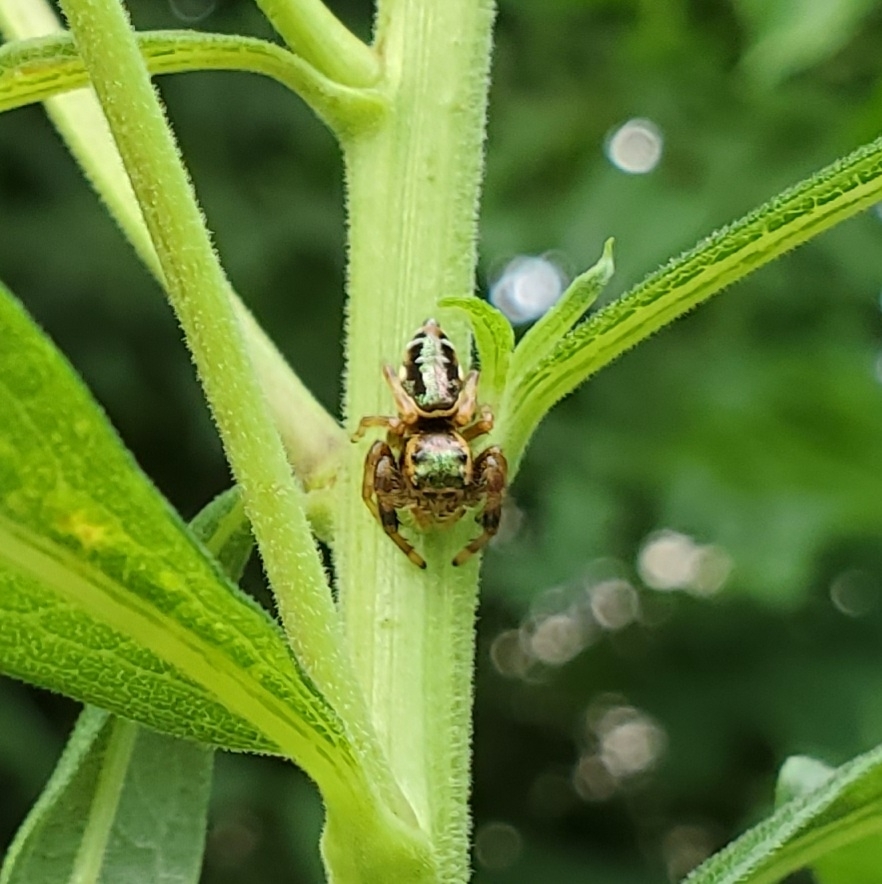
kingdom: Animalia
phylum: Arthropoda
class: Arachnida
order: Araneae
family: Salticidae
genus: Paraphidippus
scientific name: Paraphidippus aurantius
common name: Jumping spiders
